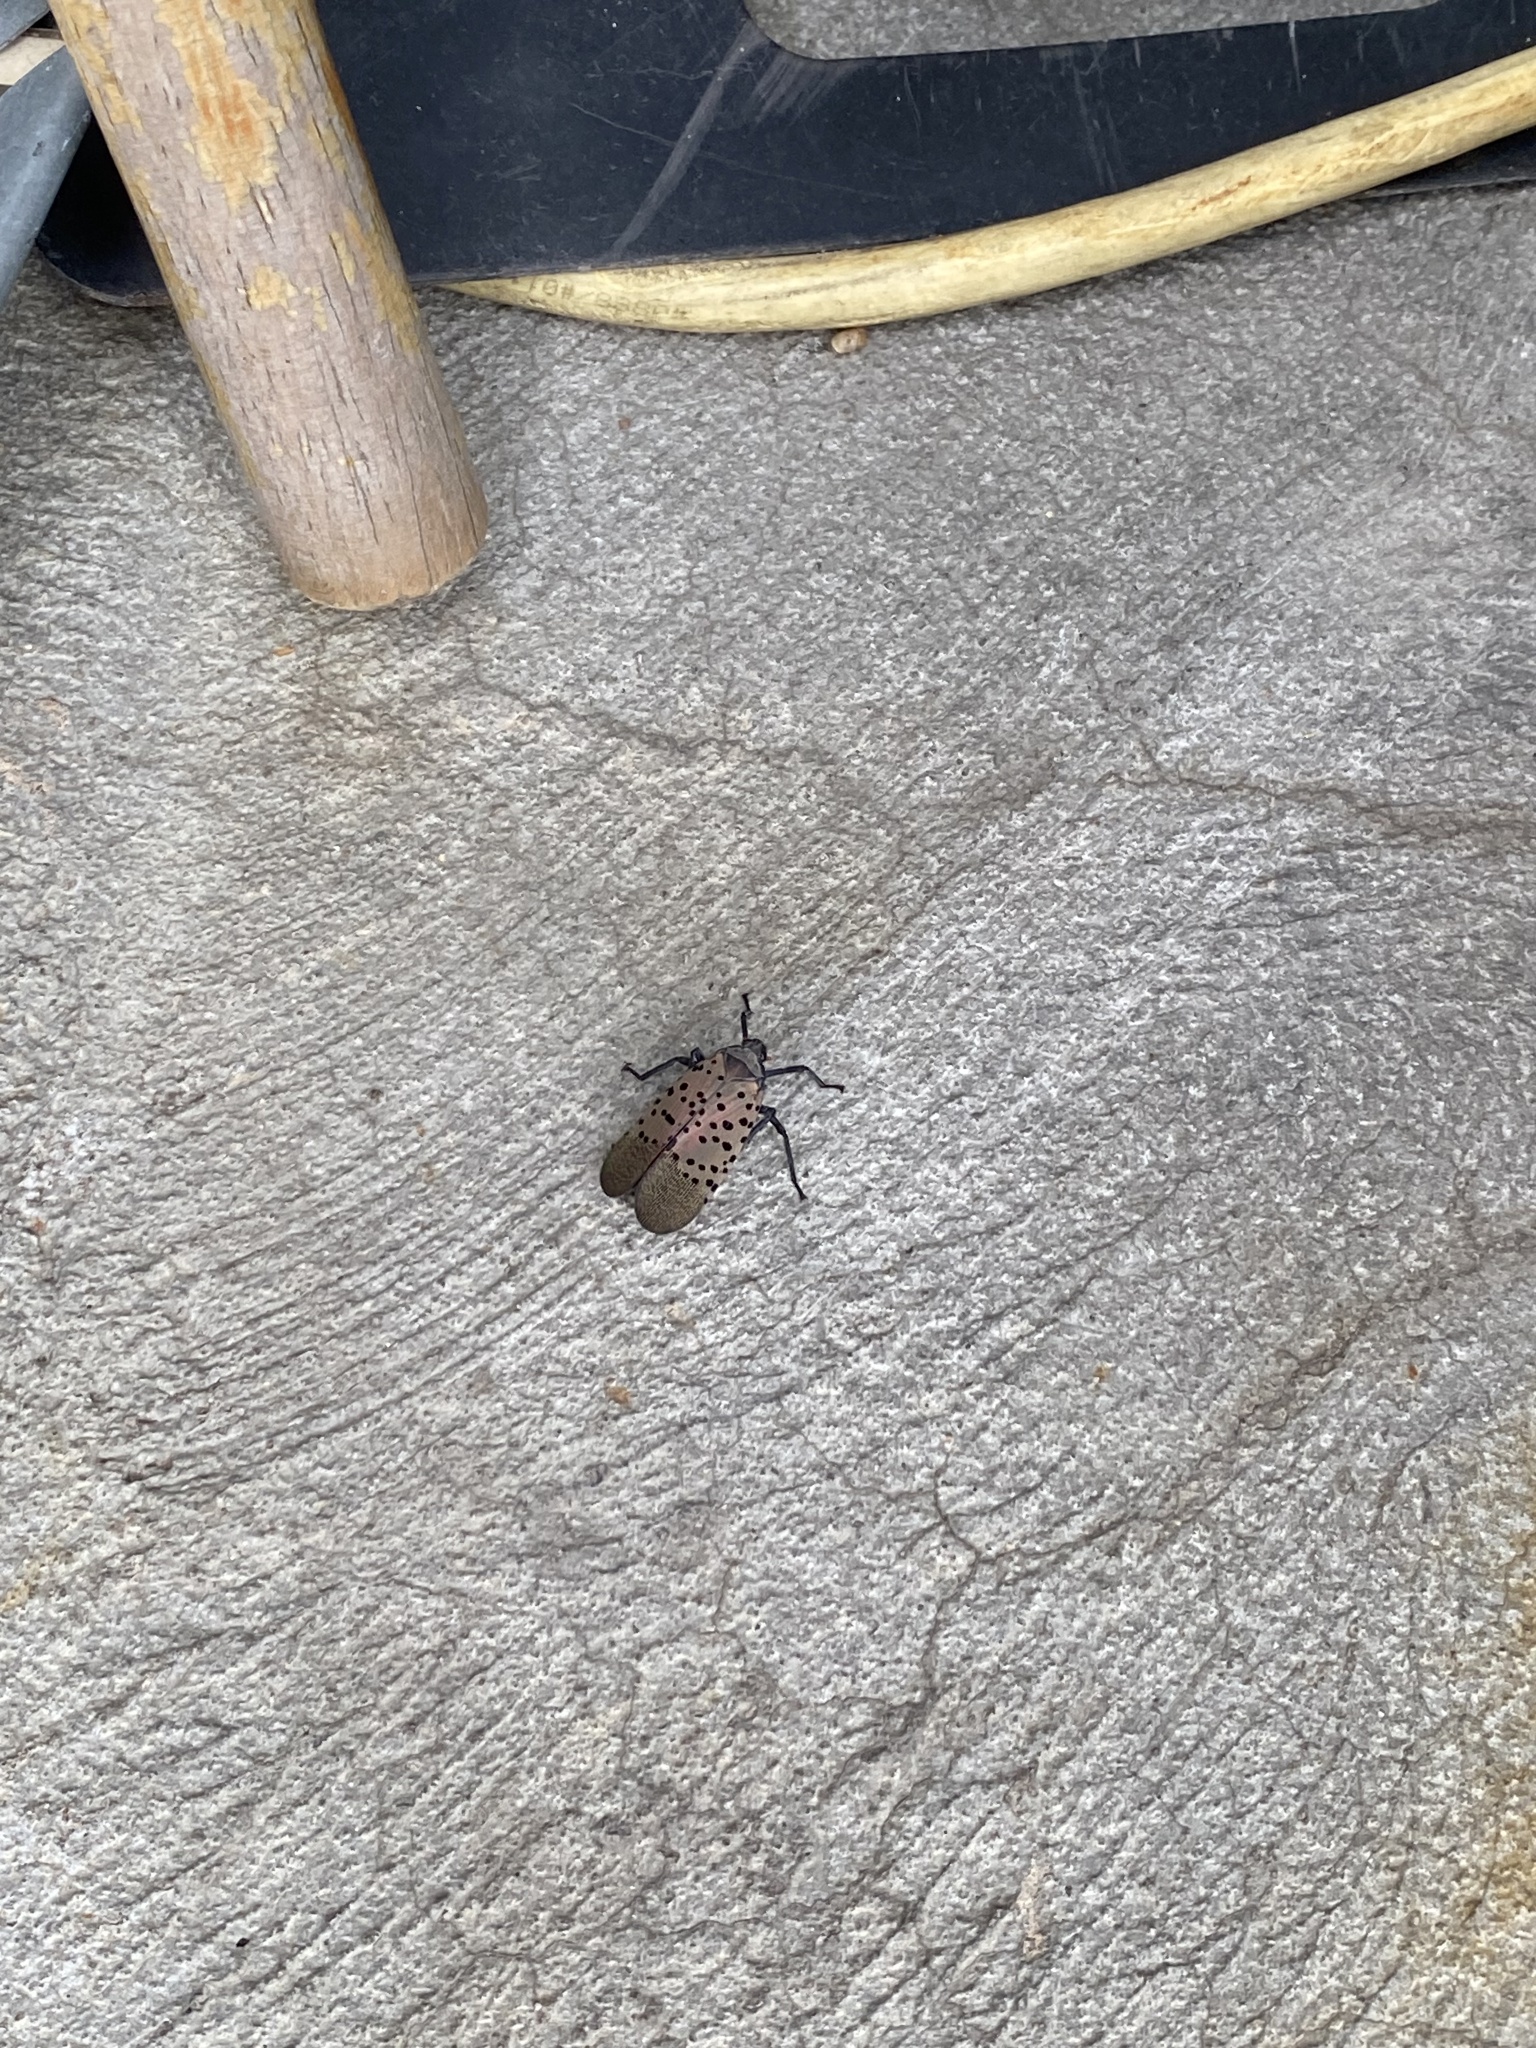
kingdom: Animalia
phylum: Arthropoda
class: Insecta
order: Hemiptera
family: Fulgoridae
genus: Lycorma
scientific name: Lycorma delicatula
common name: Spotted lanternfly
